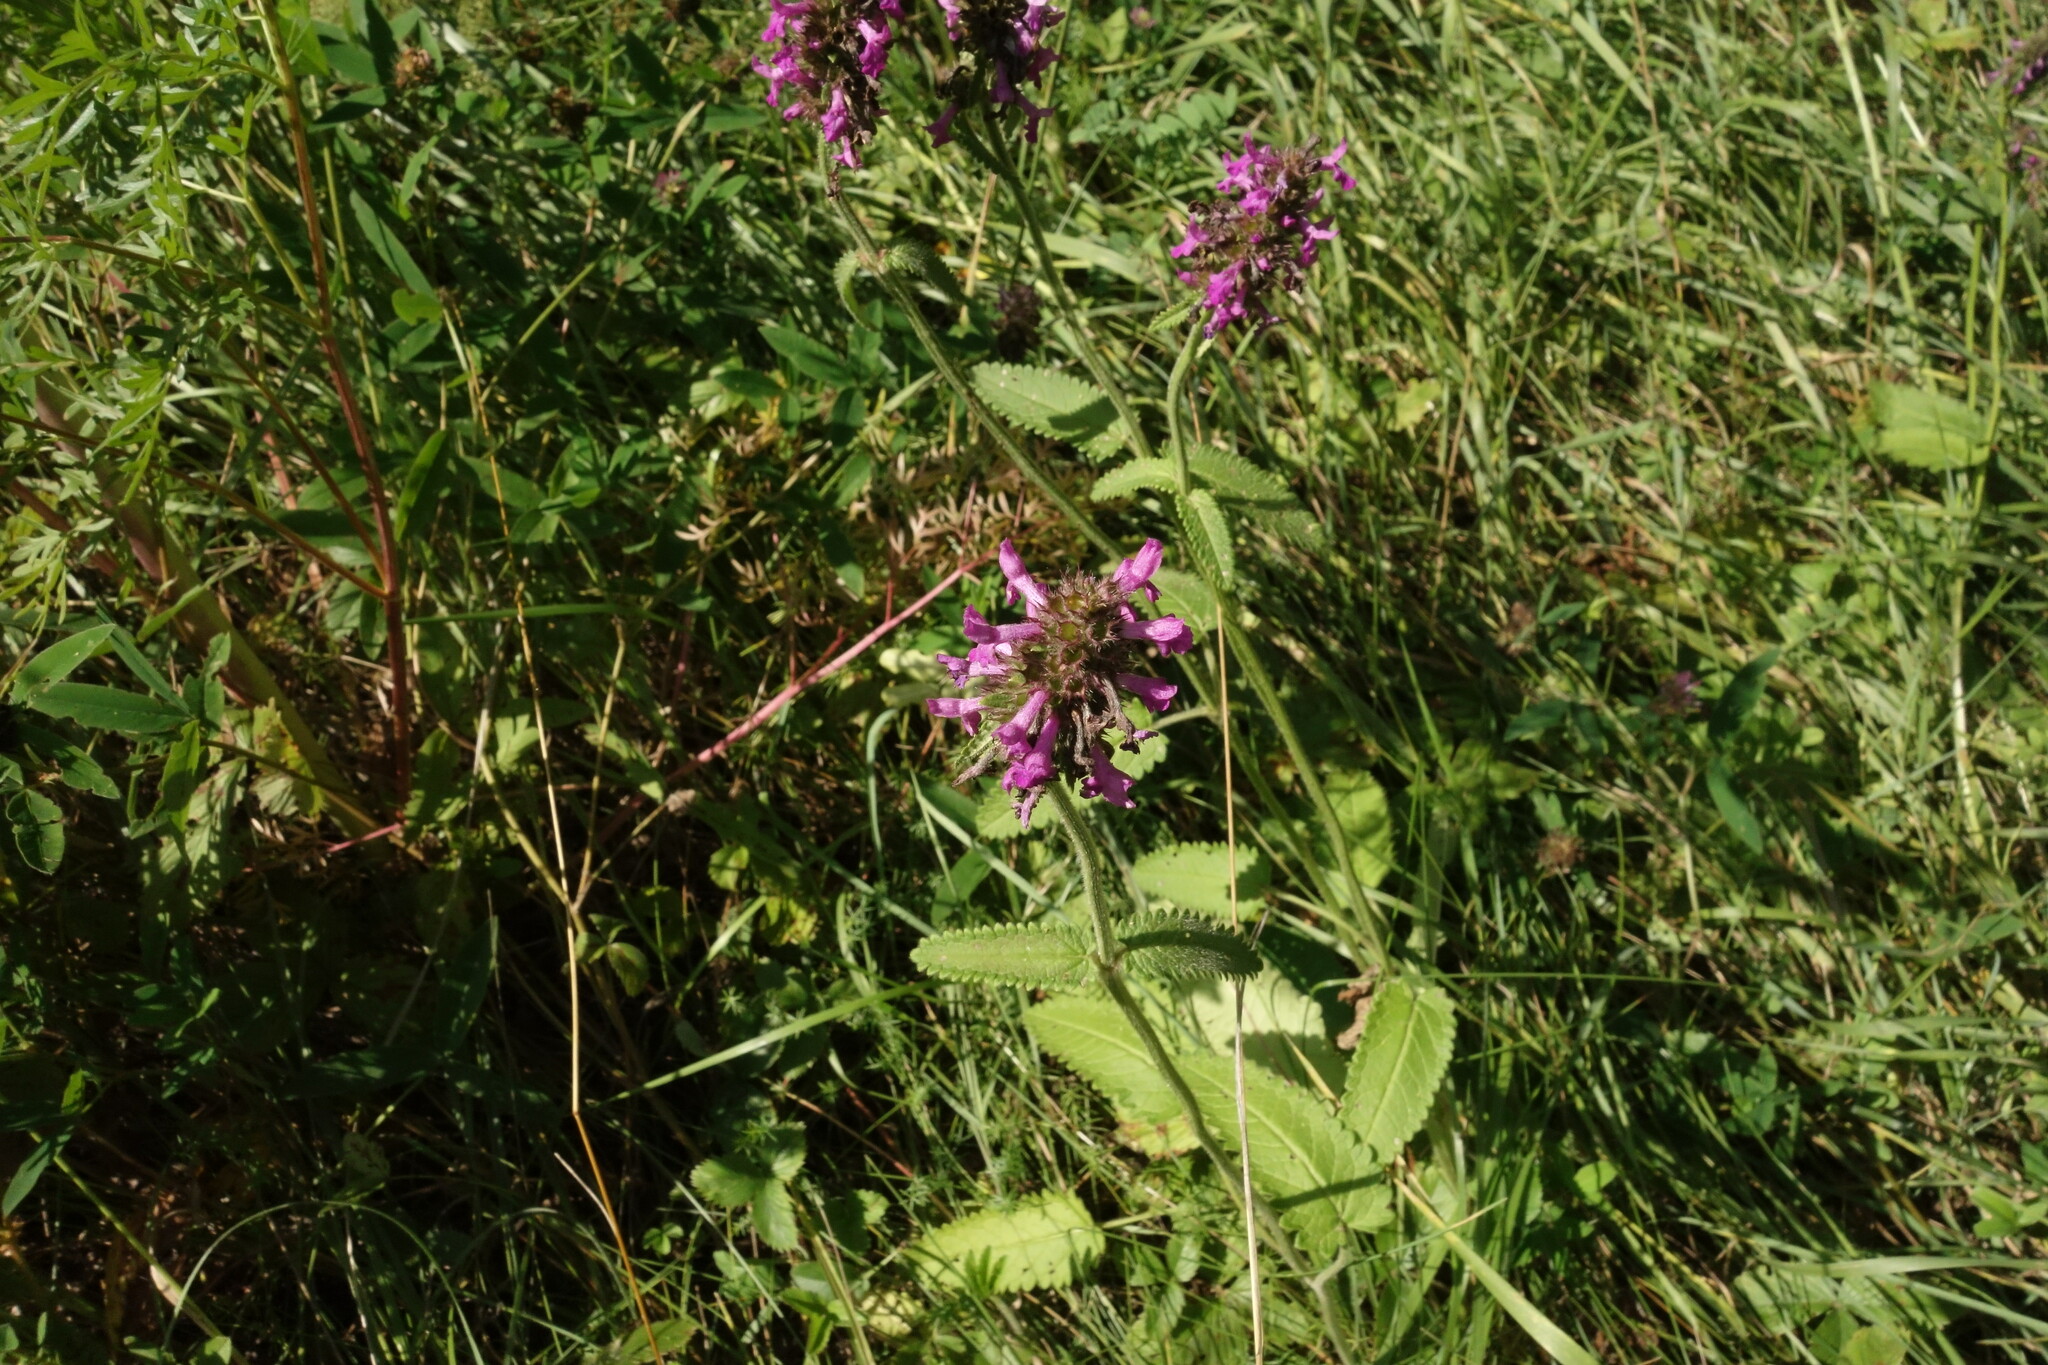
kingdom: Plantae
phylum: Tracheophyta
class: Magnoliopsida
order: Lamiales
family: Lamiaceae
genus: Betonica
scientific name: Betonica officinalis
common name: Bishop's-wort
